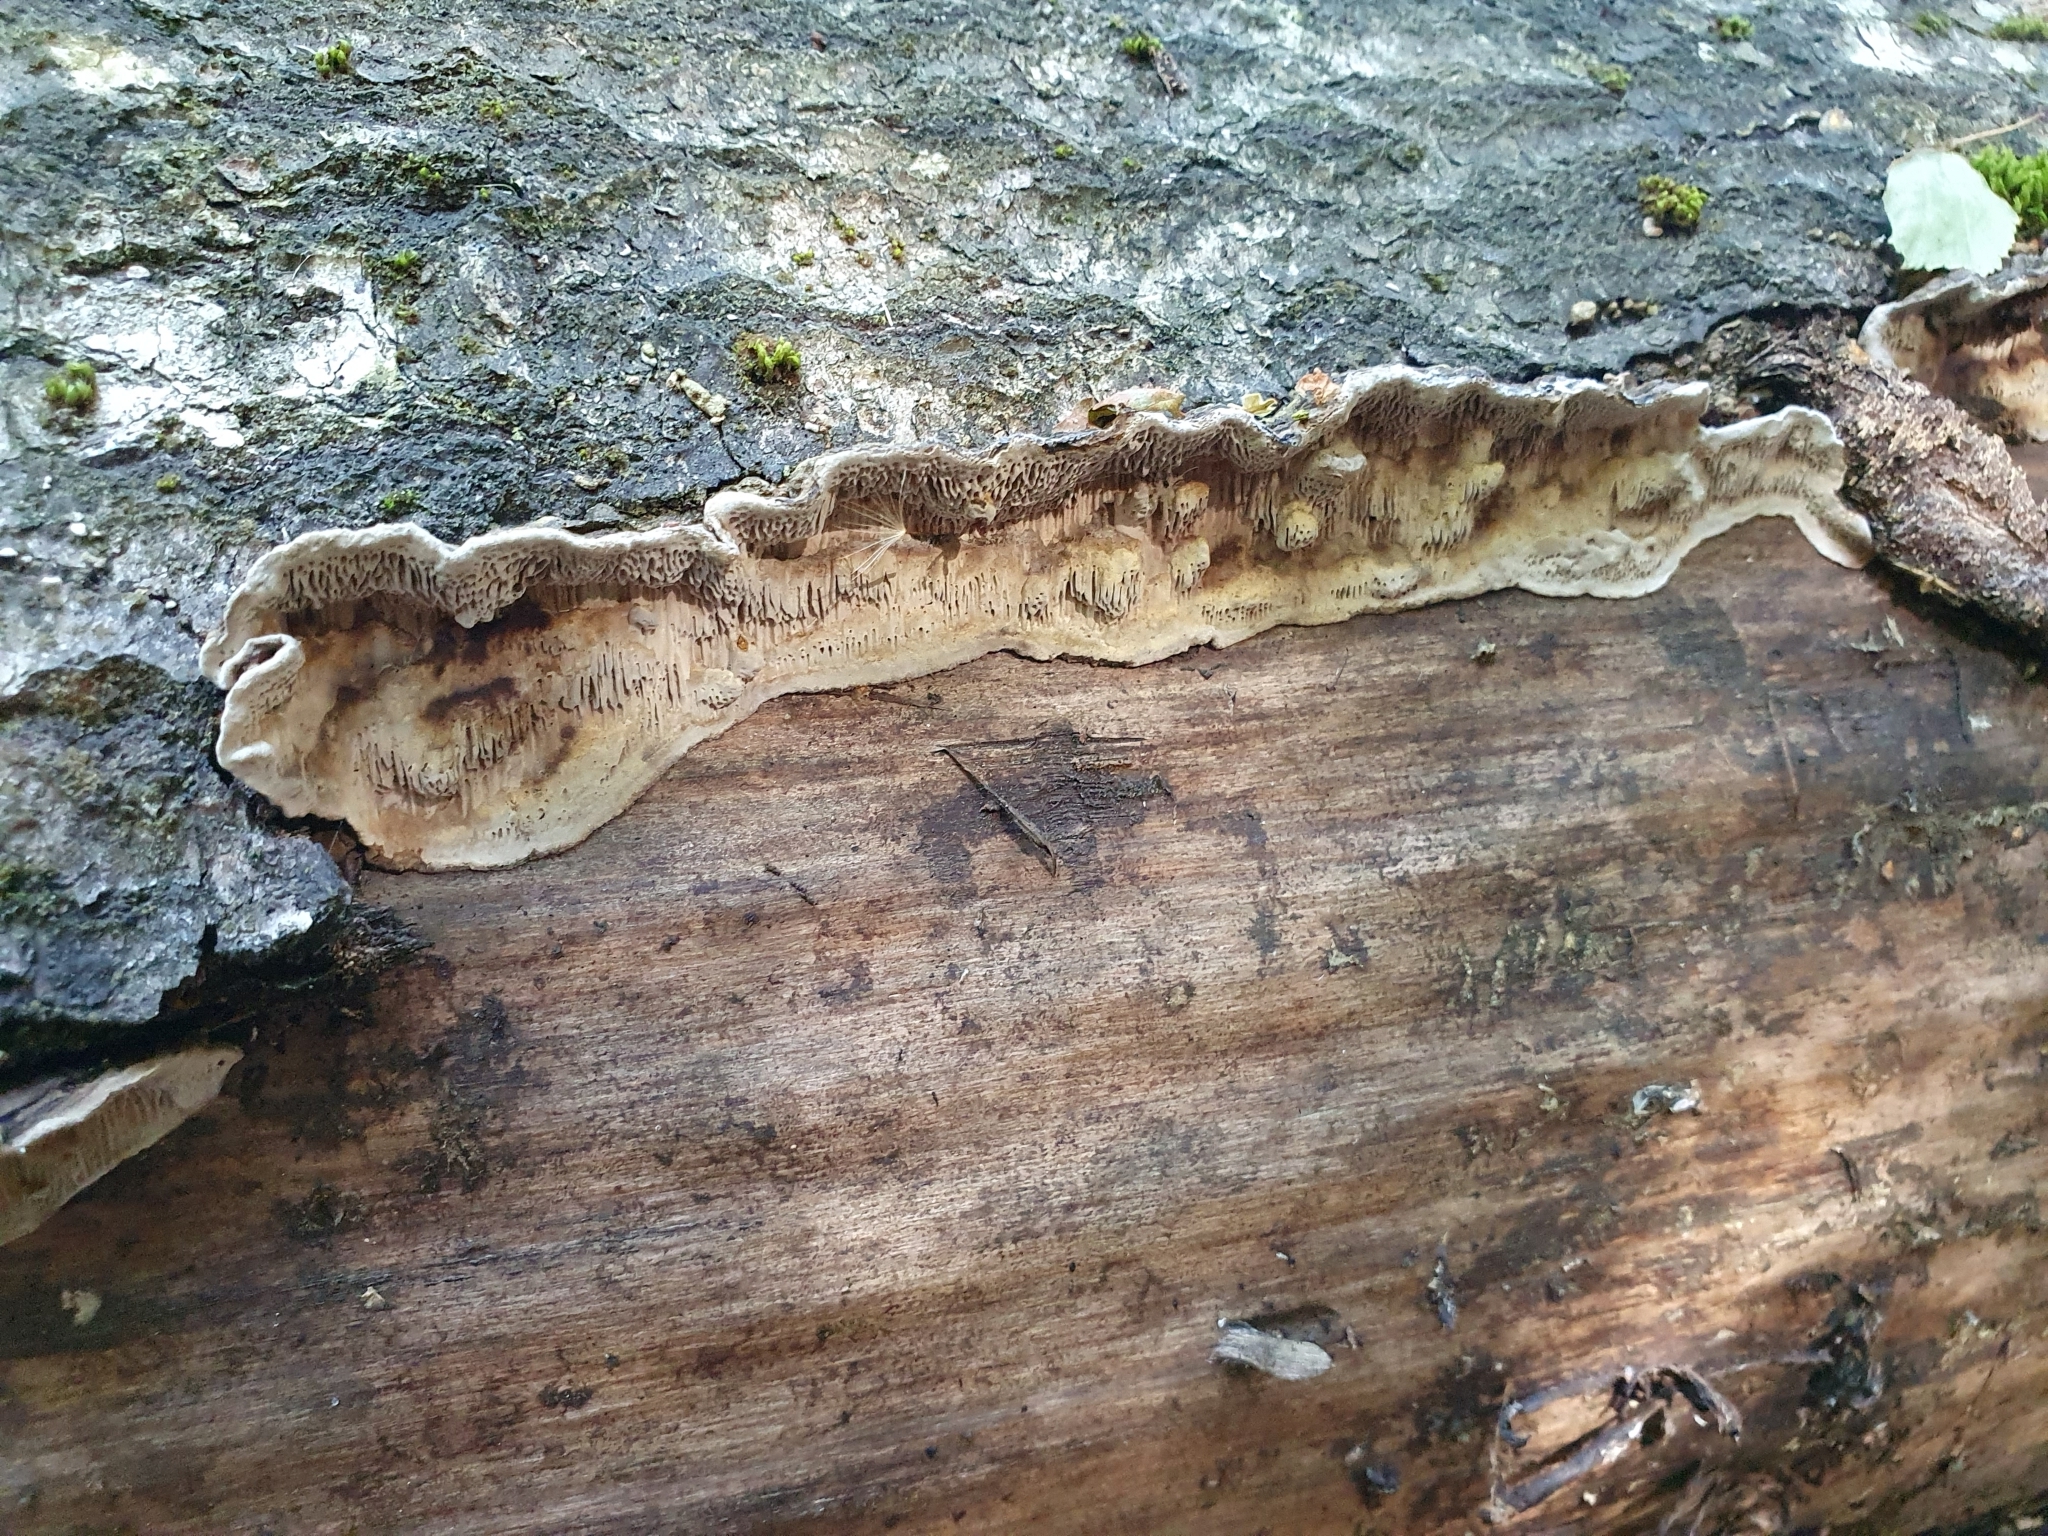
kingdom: Fungi
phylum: Basidiomycota
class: Agaricomycetes
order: Polyporales
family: Polyporaceae
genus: Podofomes
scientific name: Podofomes mollis
